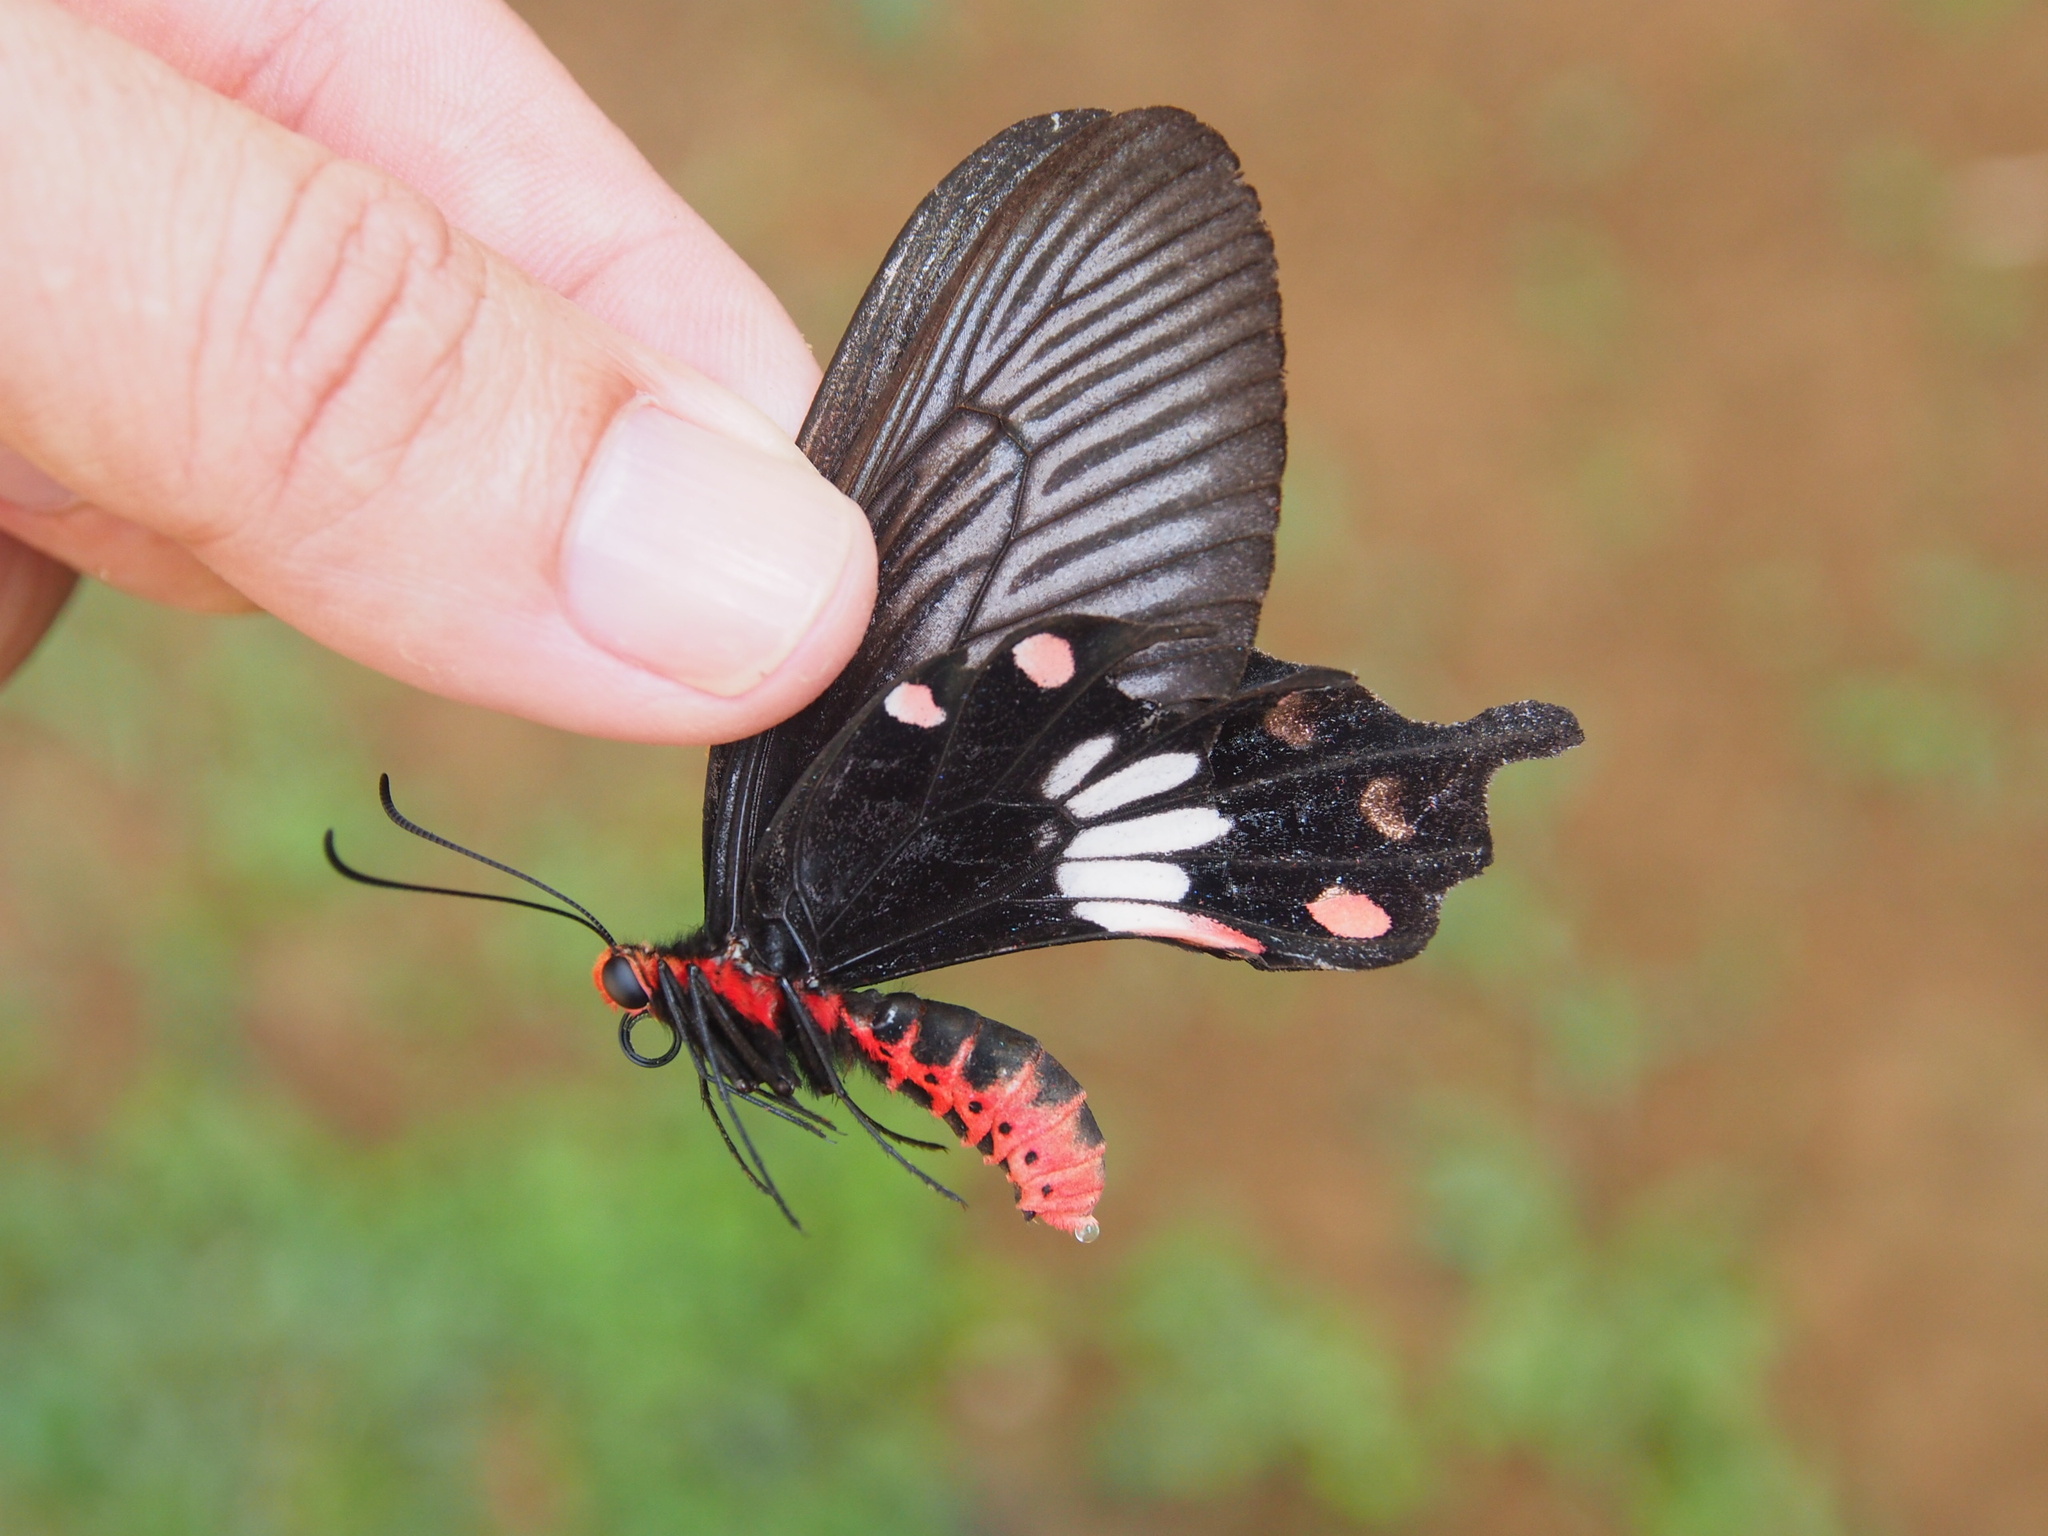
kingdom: Animalia
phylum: Arthropoda
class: Insecta
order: Lepidoptera
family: Papilionidae
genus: Pachliopta
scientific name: Pachliopta aristolochiae
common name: Common rose
